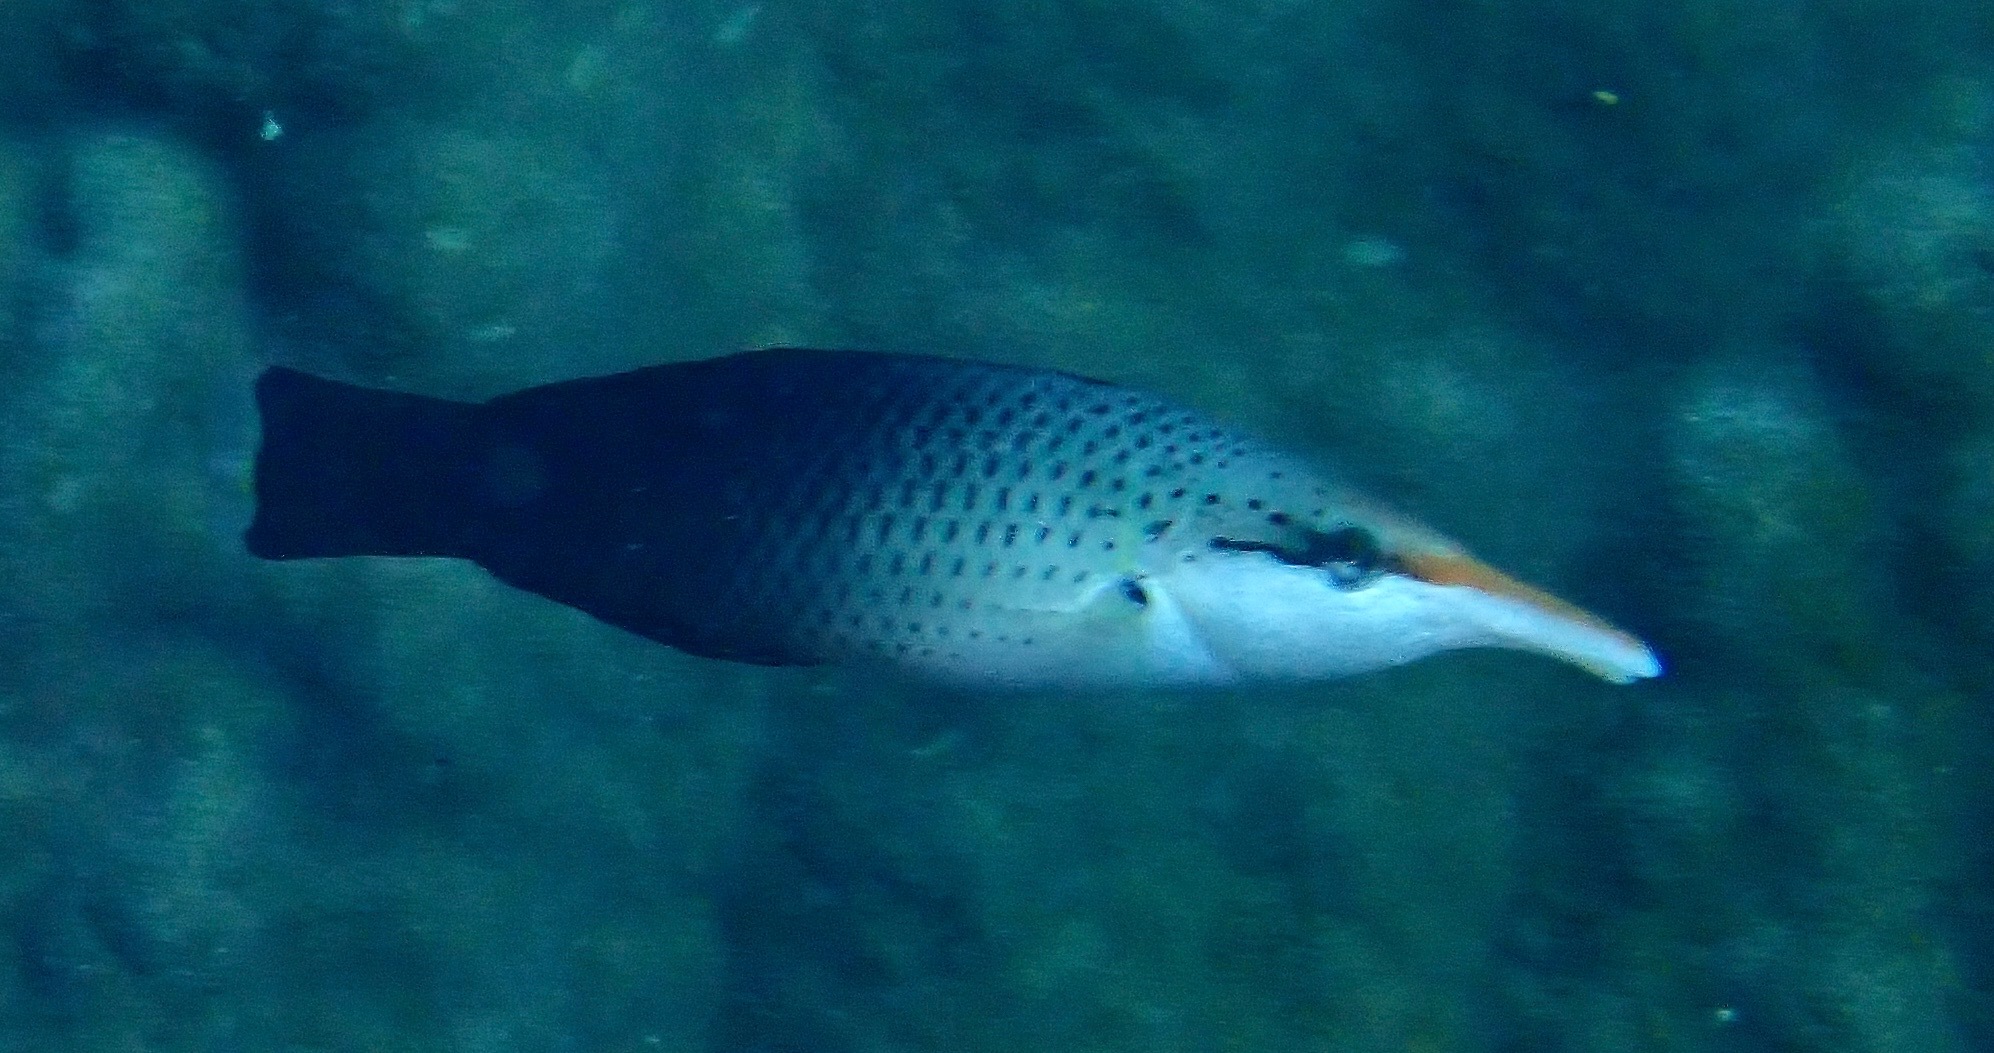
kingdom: Animalia
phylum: Chordata
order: Perciformes
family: Labridae
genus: Gomphosus
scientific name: Gomphosus varius
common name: Bird wrasse
